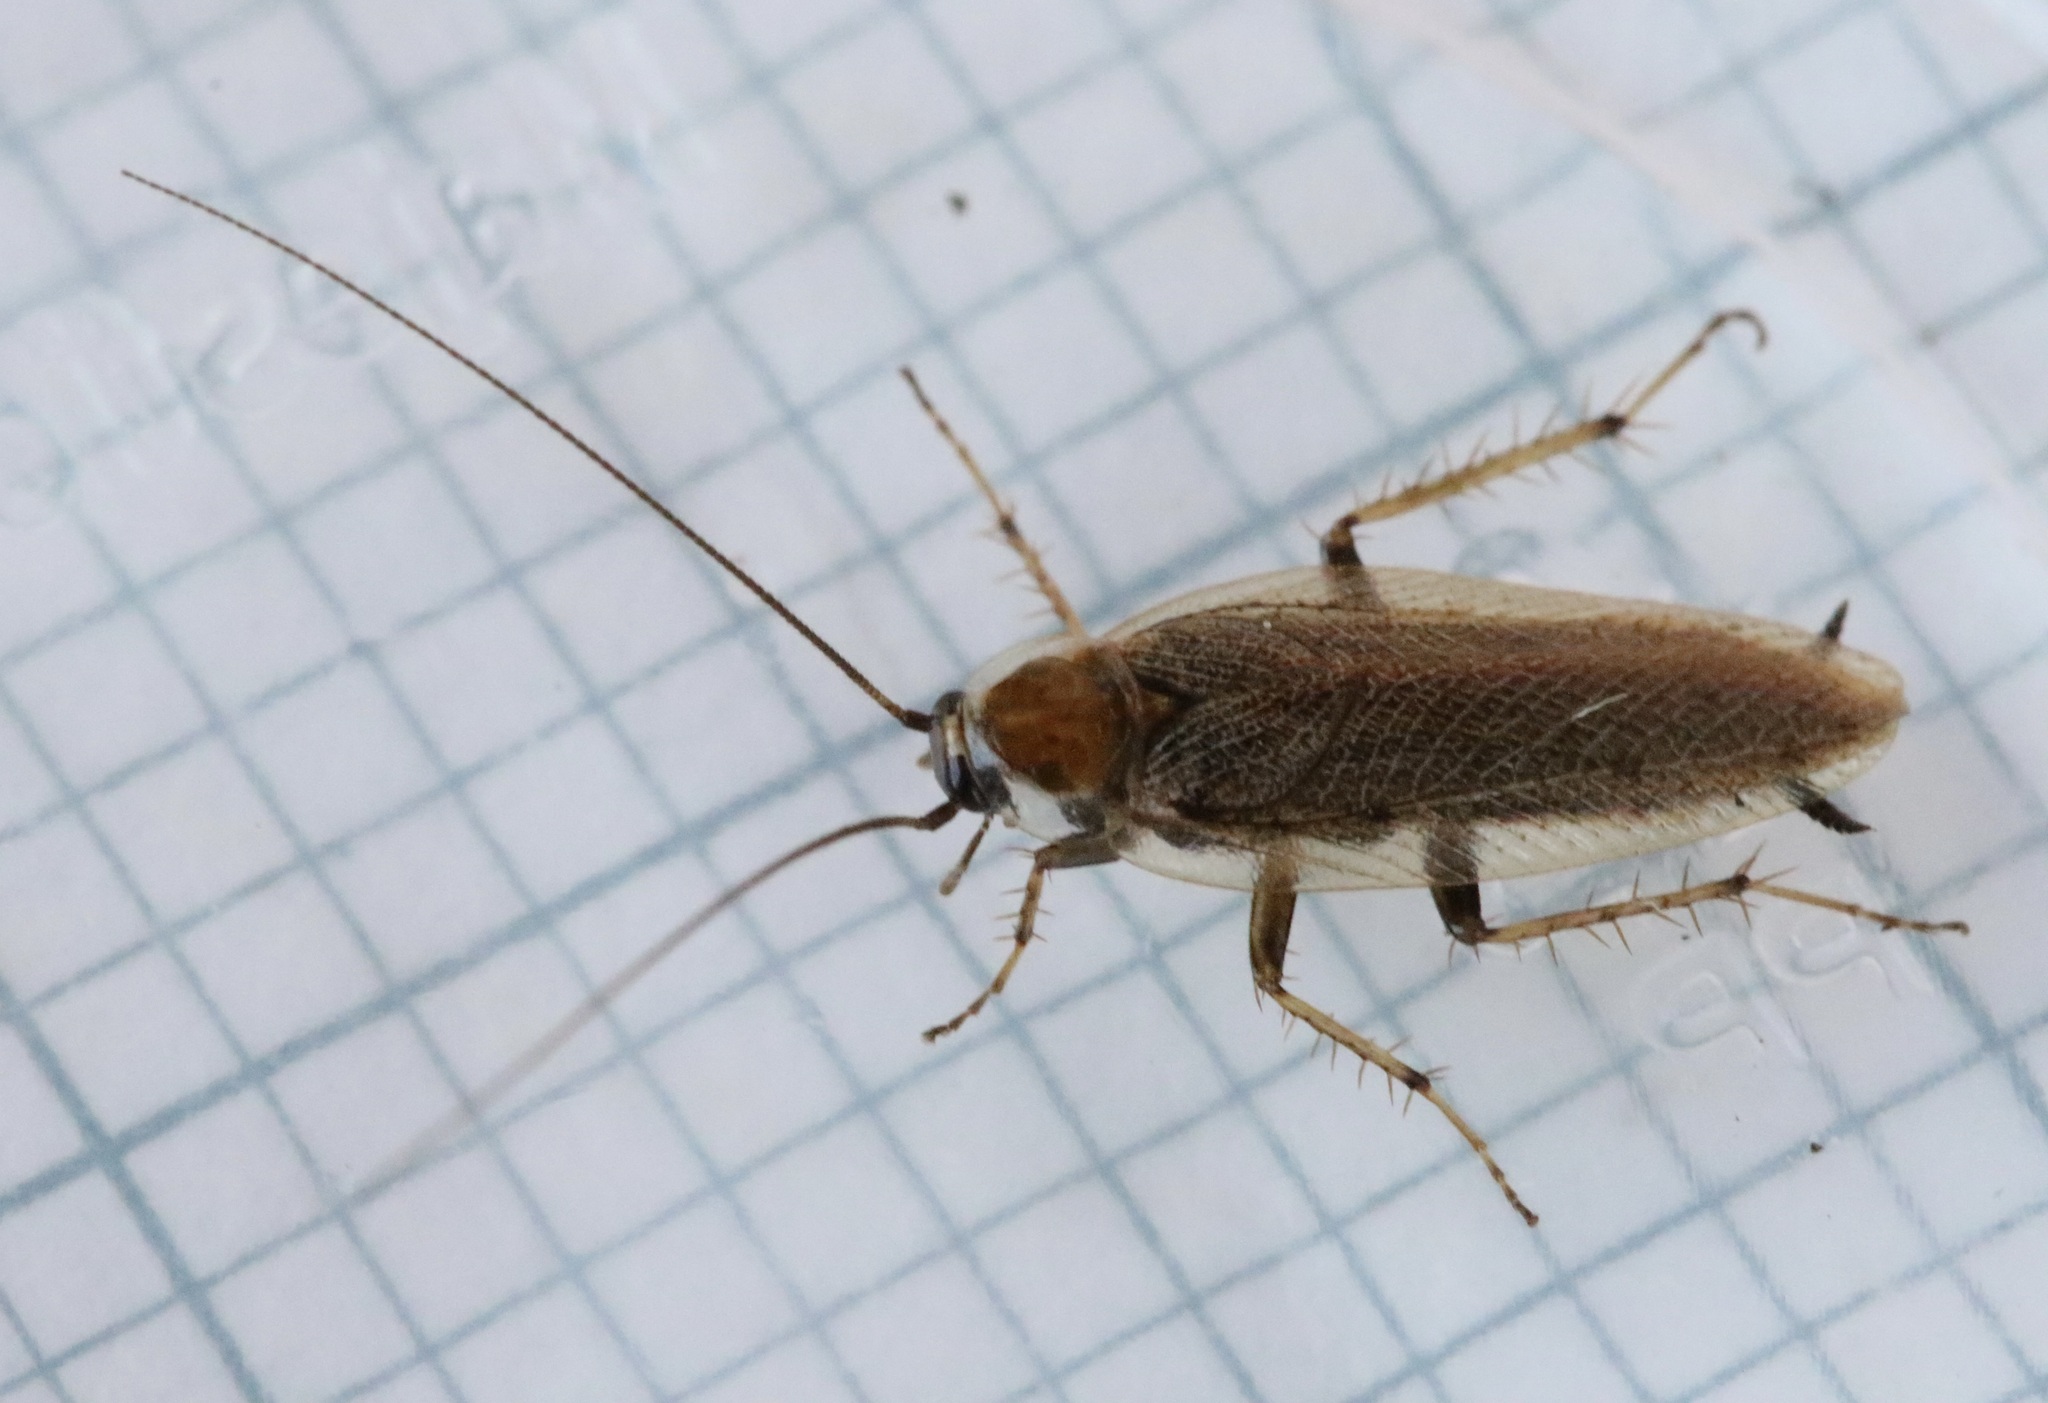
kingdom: Animalia
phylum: Arthropoda
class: Insecta
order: Blattodea
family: Ectobiidae
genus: Ectobius
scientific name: Ectobius vittiventris
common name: Garden cockroach
